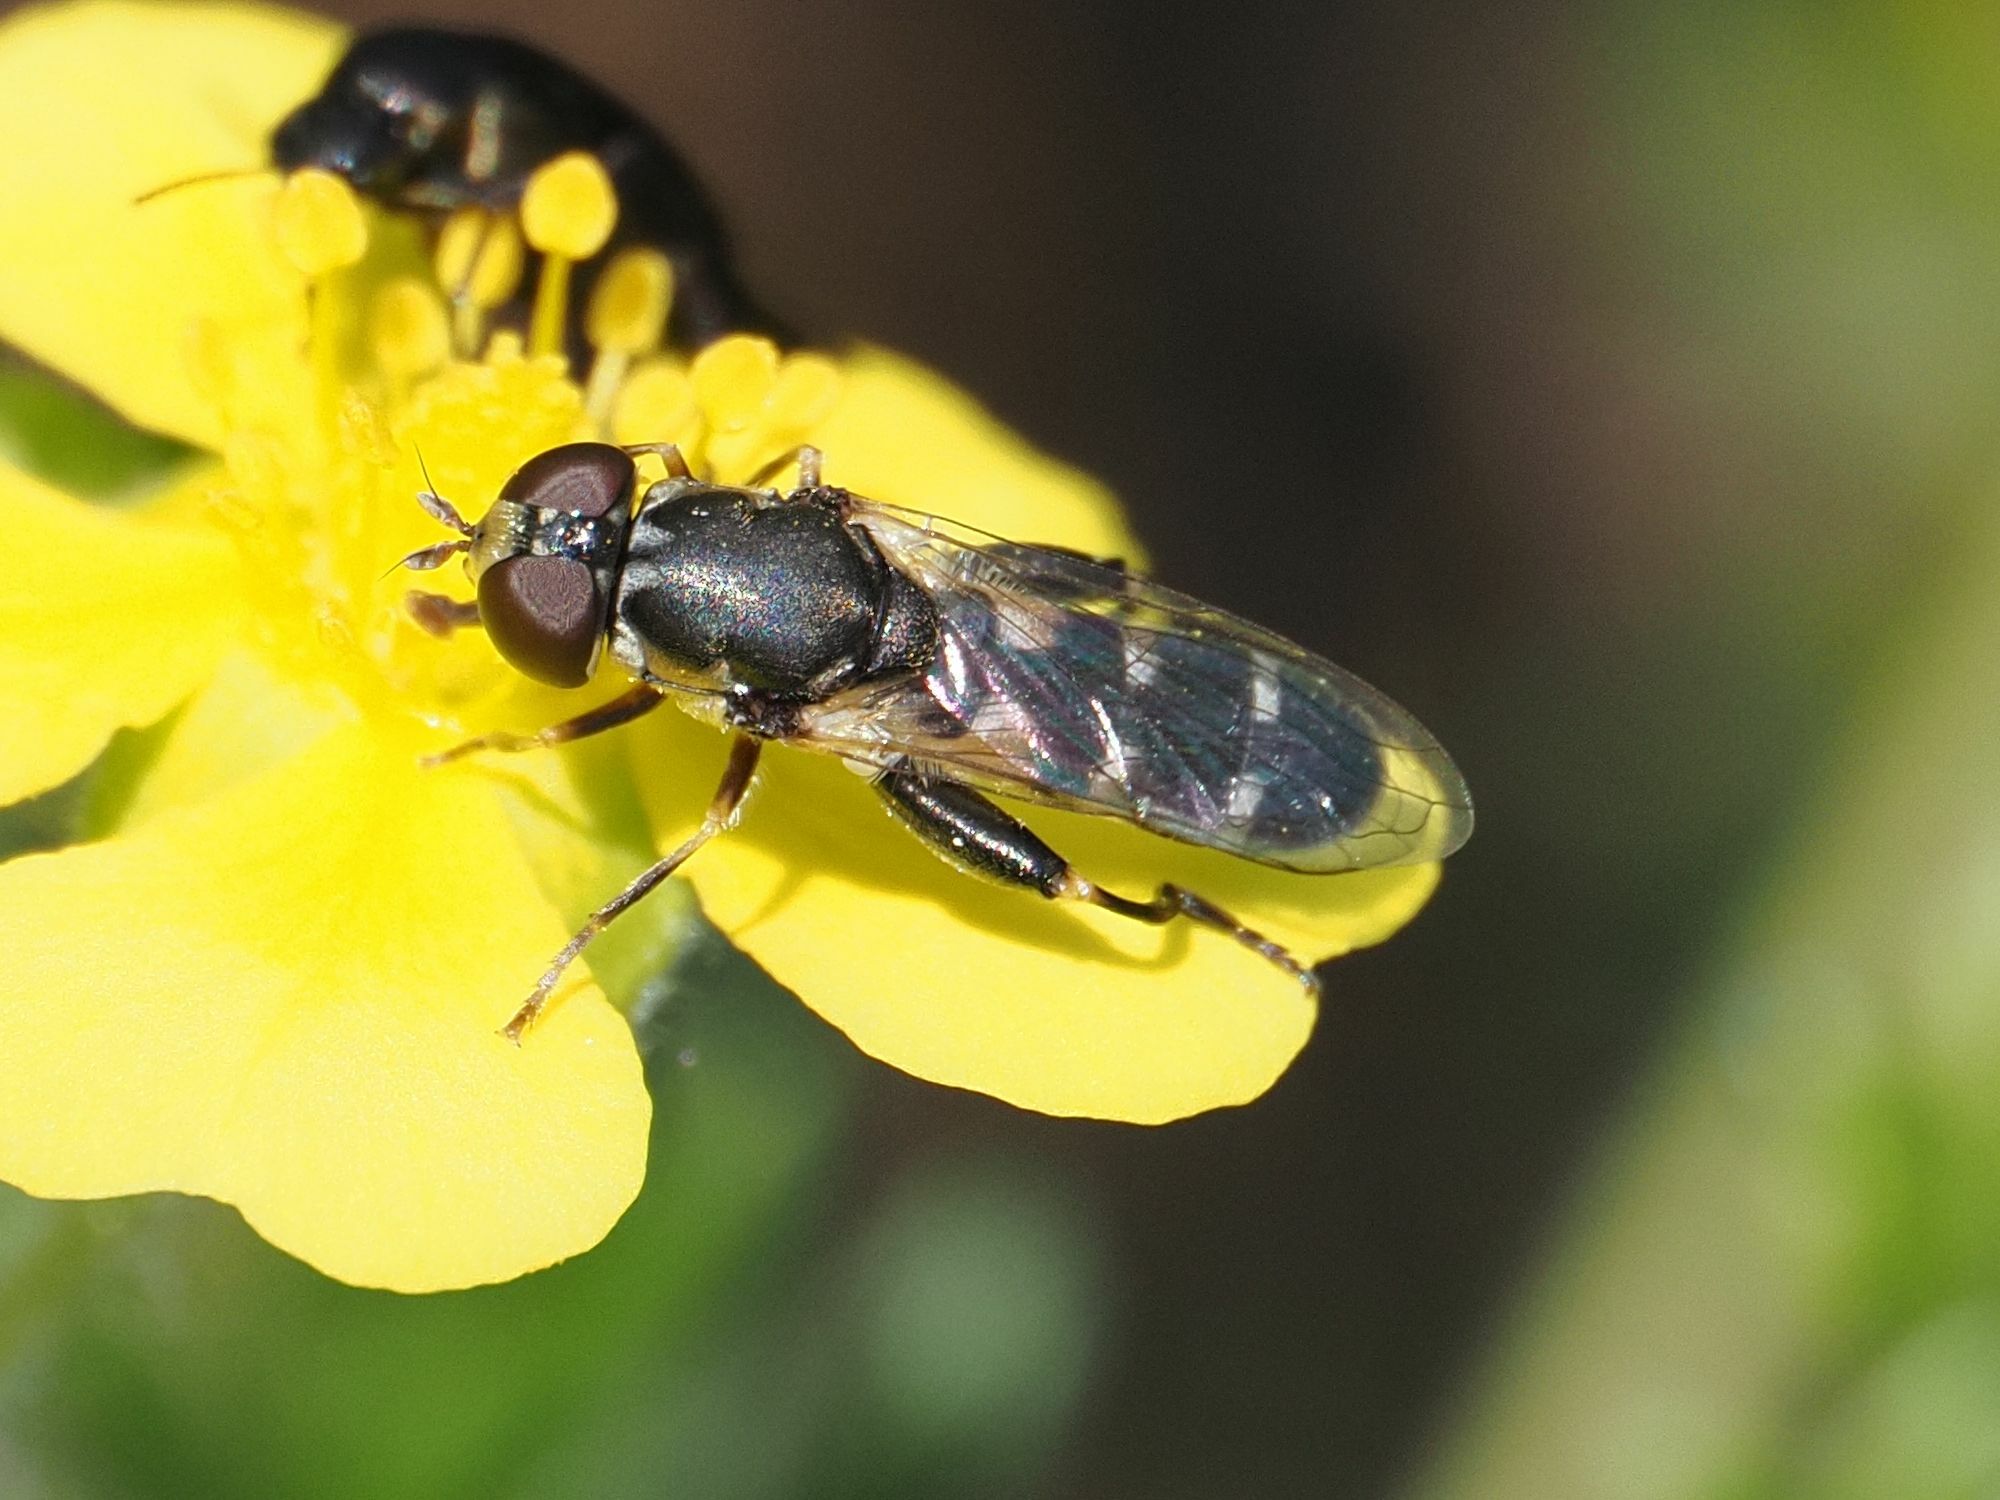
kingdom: Animalia
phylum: Arthropoda
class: Insecta
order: Diptera
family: Syrphidae
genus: Syritta
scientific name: Syritta pipiens
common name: Hover fly
